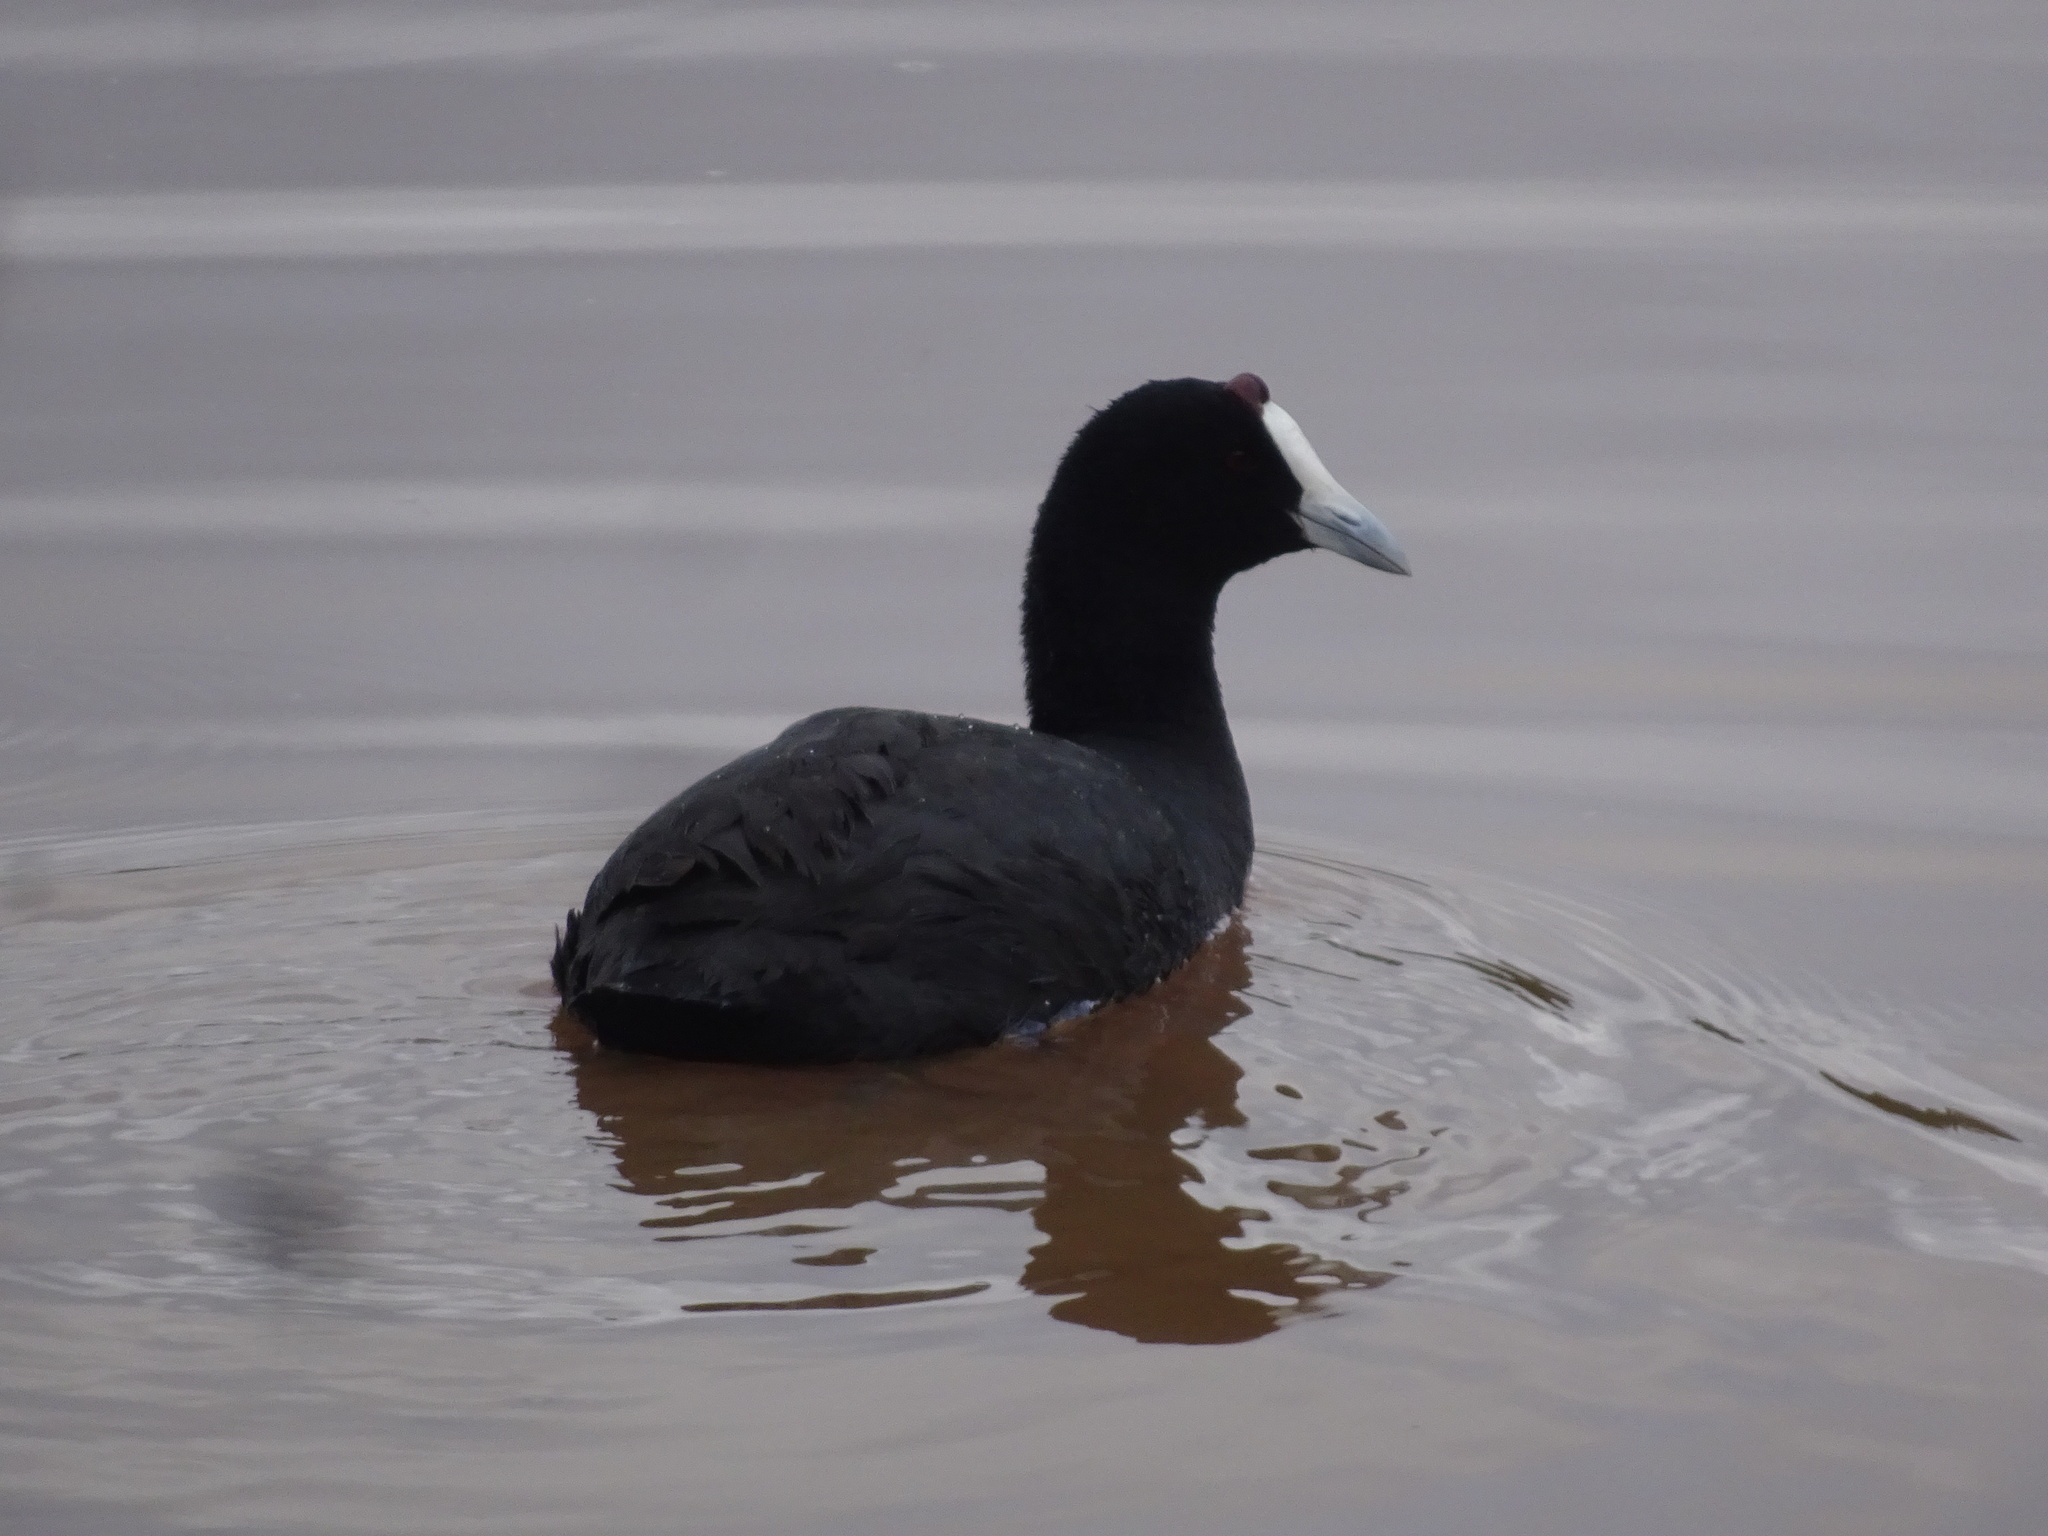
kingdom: Animalia
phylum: Chordata
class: Aves
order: Gruiformes
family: Rallidae
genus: Fulica
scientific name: Fulica cristata
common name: Red-knobbed coot
